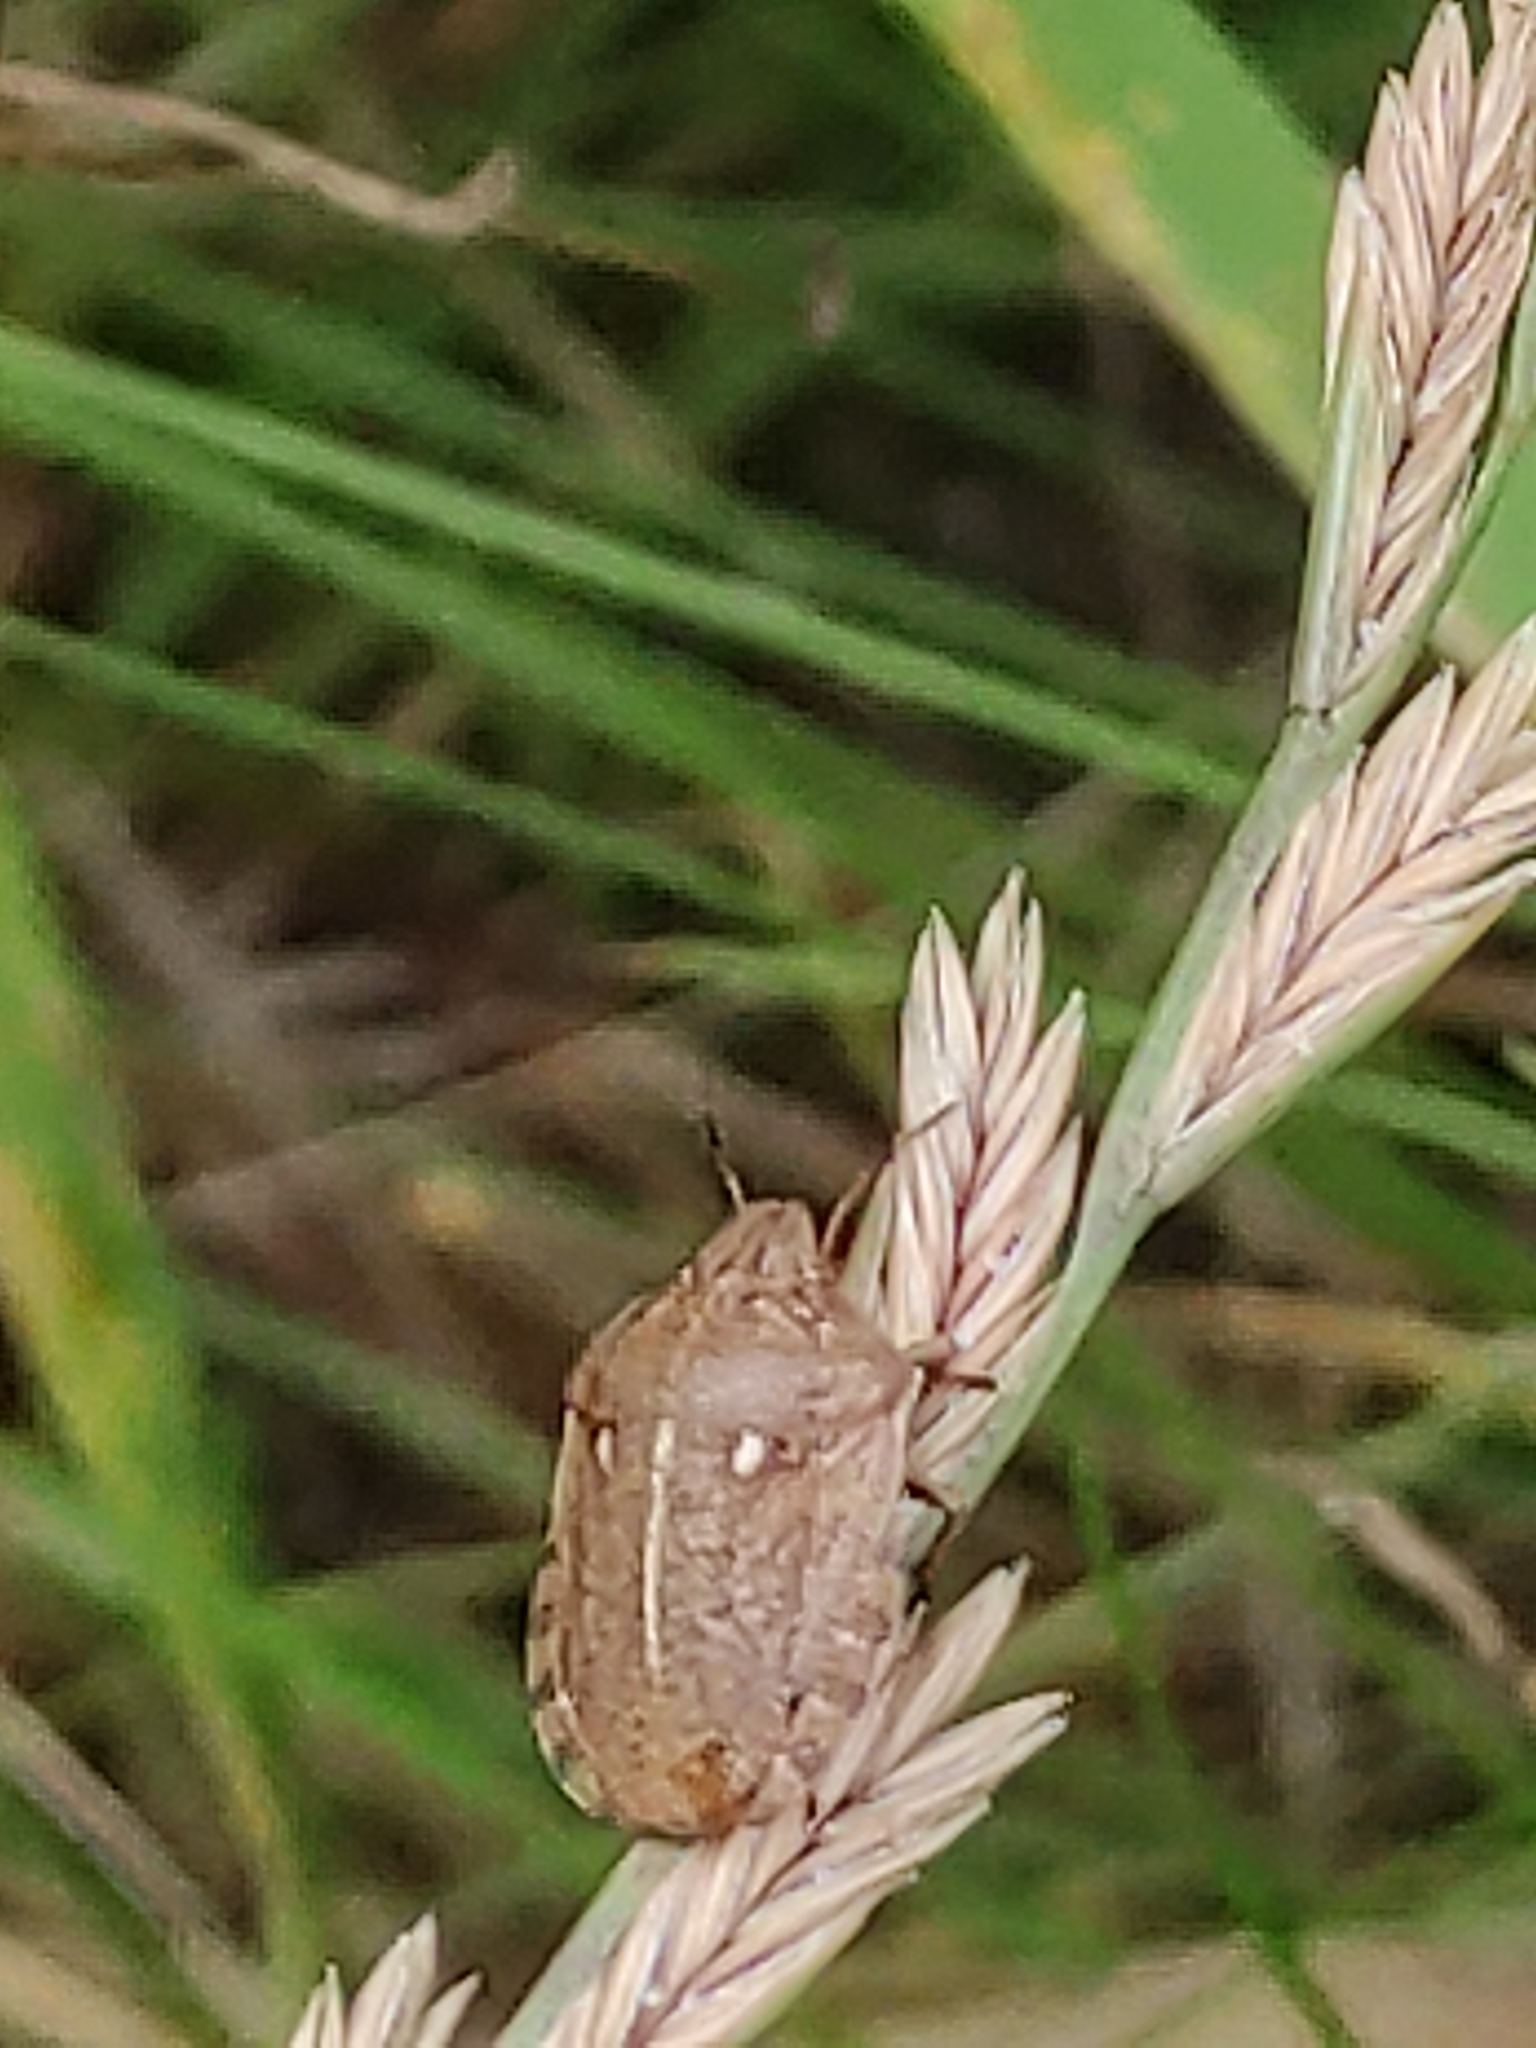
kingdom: Animalia
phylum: Arthropoda
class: Insecta
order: Hemiptera
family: Scutelleridae
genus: Eurygaster
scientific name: Eurygaster testudinaria
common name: Tortoise bug
